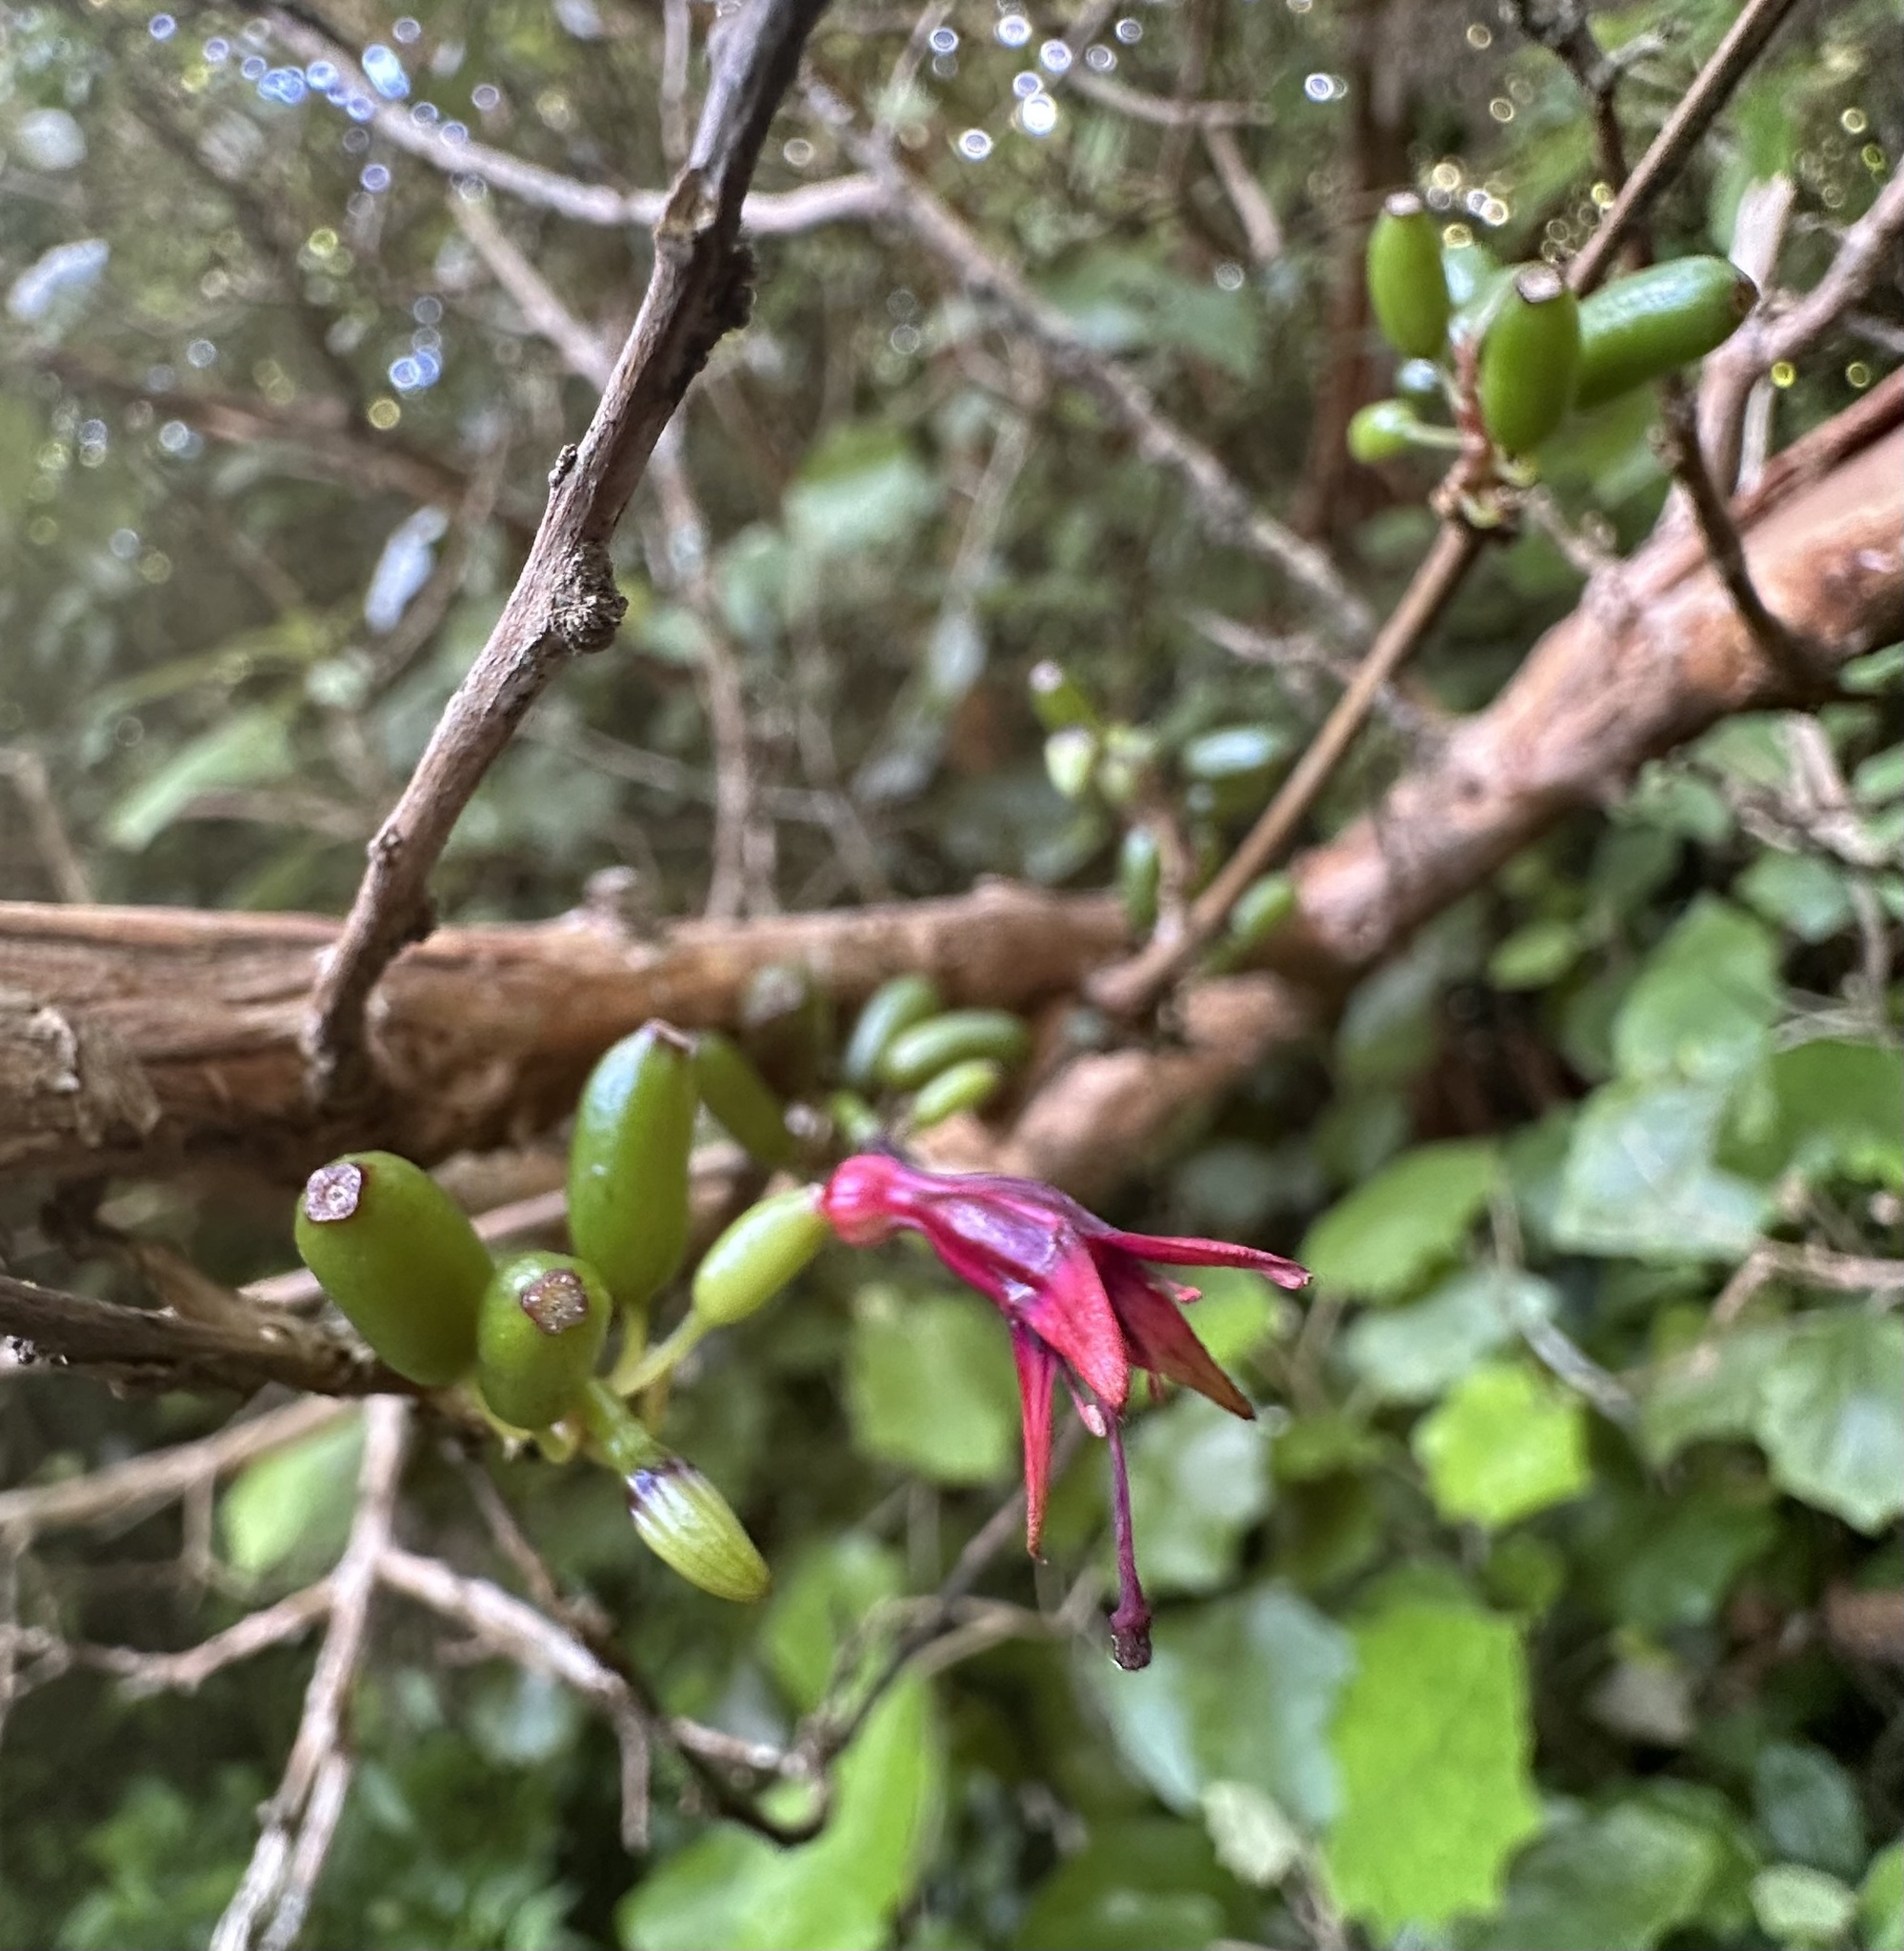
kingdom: Plantae
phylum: Tracheophyta
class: Magnoliopsida
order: Myrtales
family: Onagraceae
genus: Fuchsia
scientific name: Fuchsia excorticata
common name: Tree fuchsia
